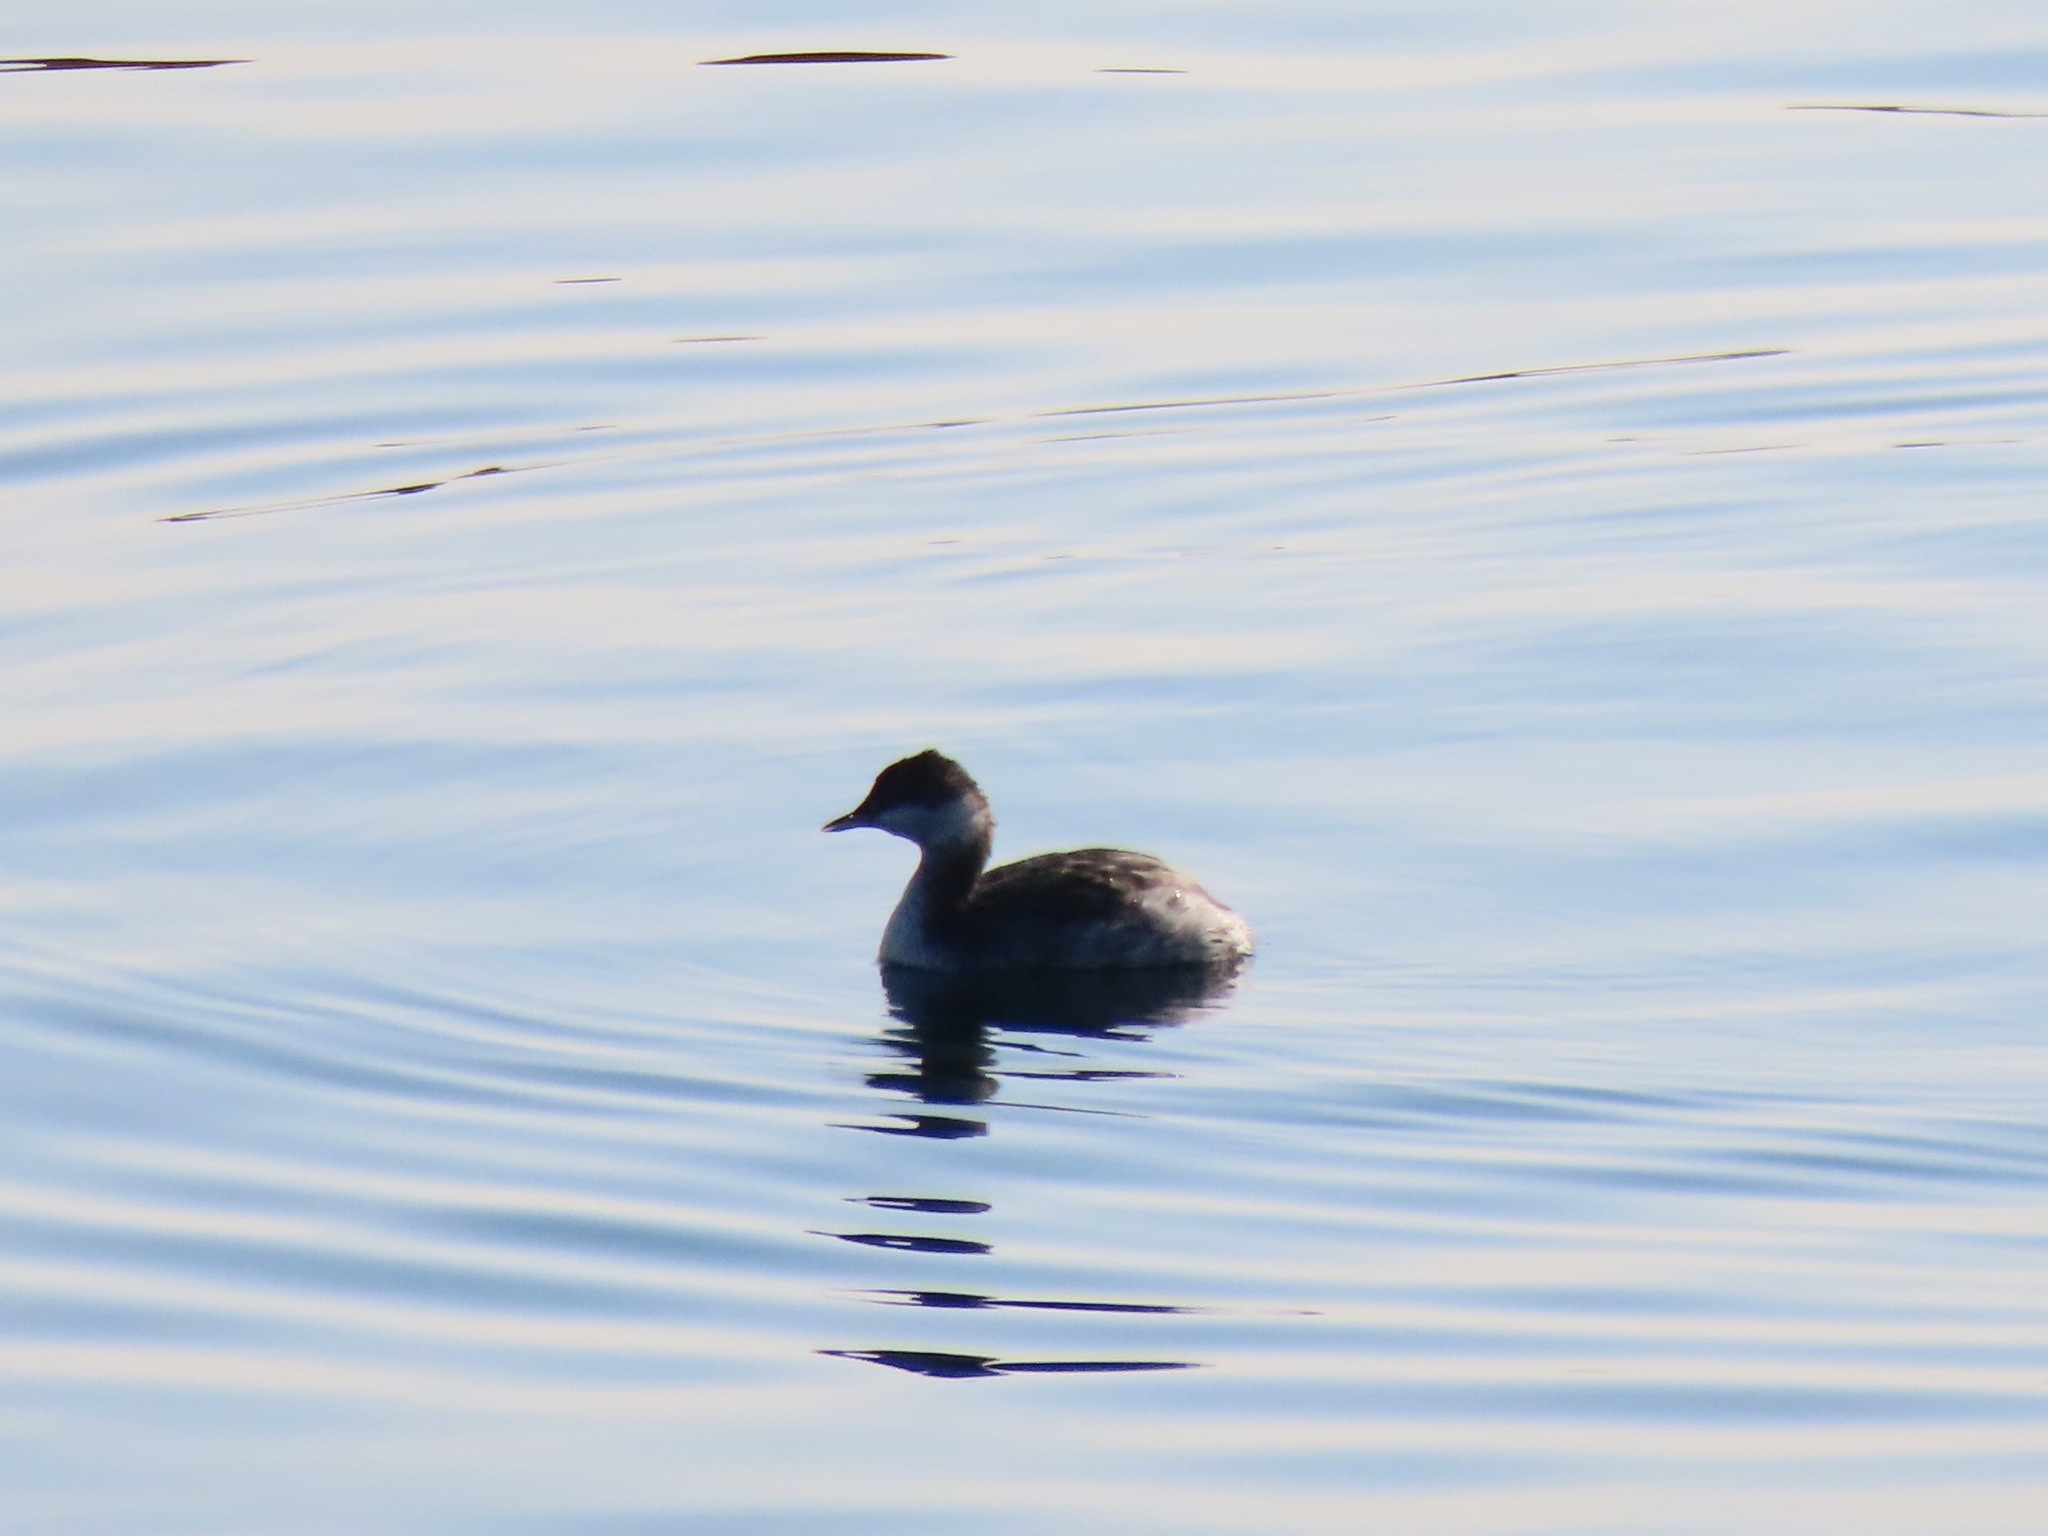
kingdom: Animalia
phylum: Chordata
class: Aves
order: Podicipediformes
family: Podicipedidae
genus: Podiceps
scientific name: Podiceps auritus
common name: Horned grebe
